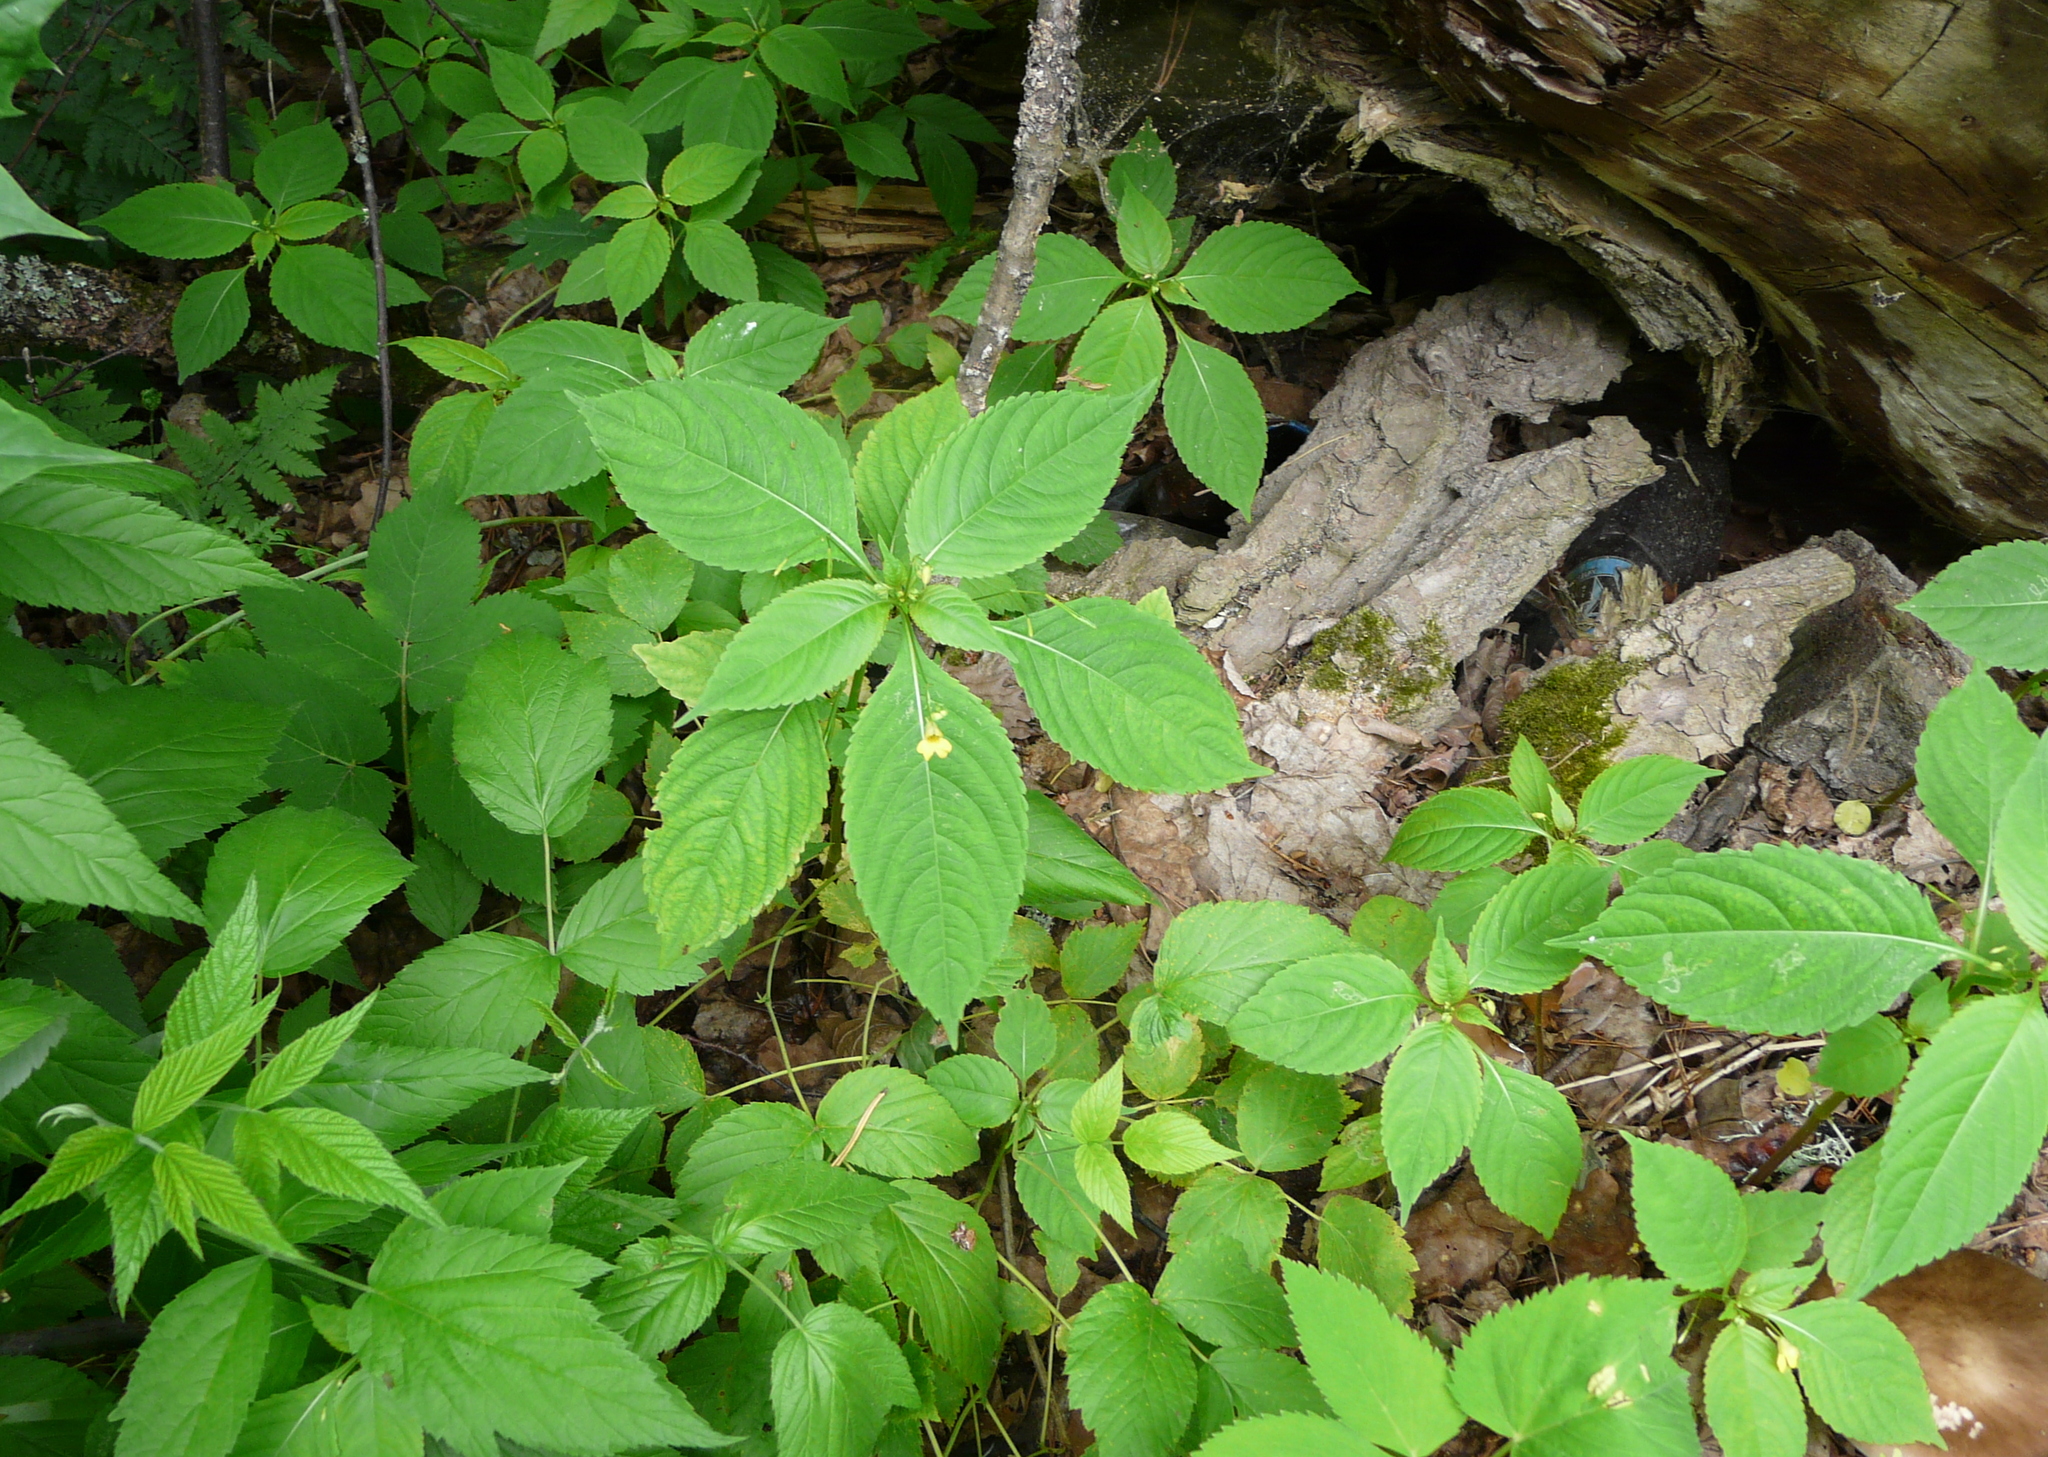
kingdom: Plantae
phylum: Tracheophyta
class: Magnoliopsida
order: Ericales
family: Balsaminaceae
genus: Impatiens
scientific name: Impatiens parviflora
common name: Small balsam
